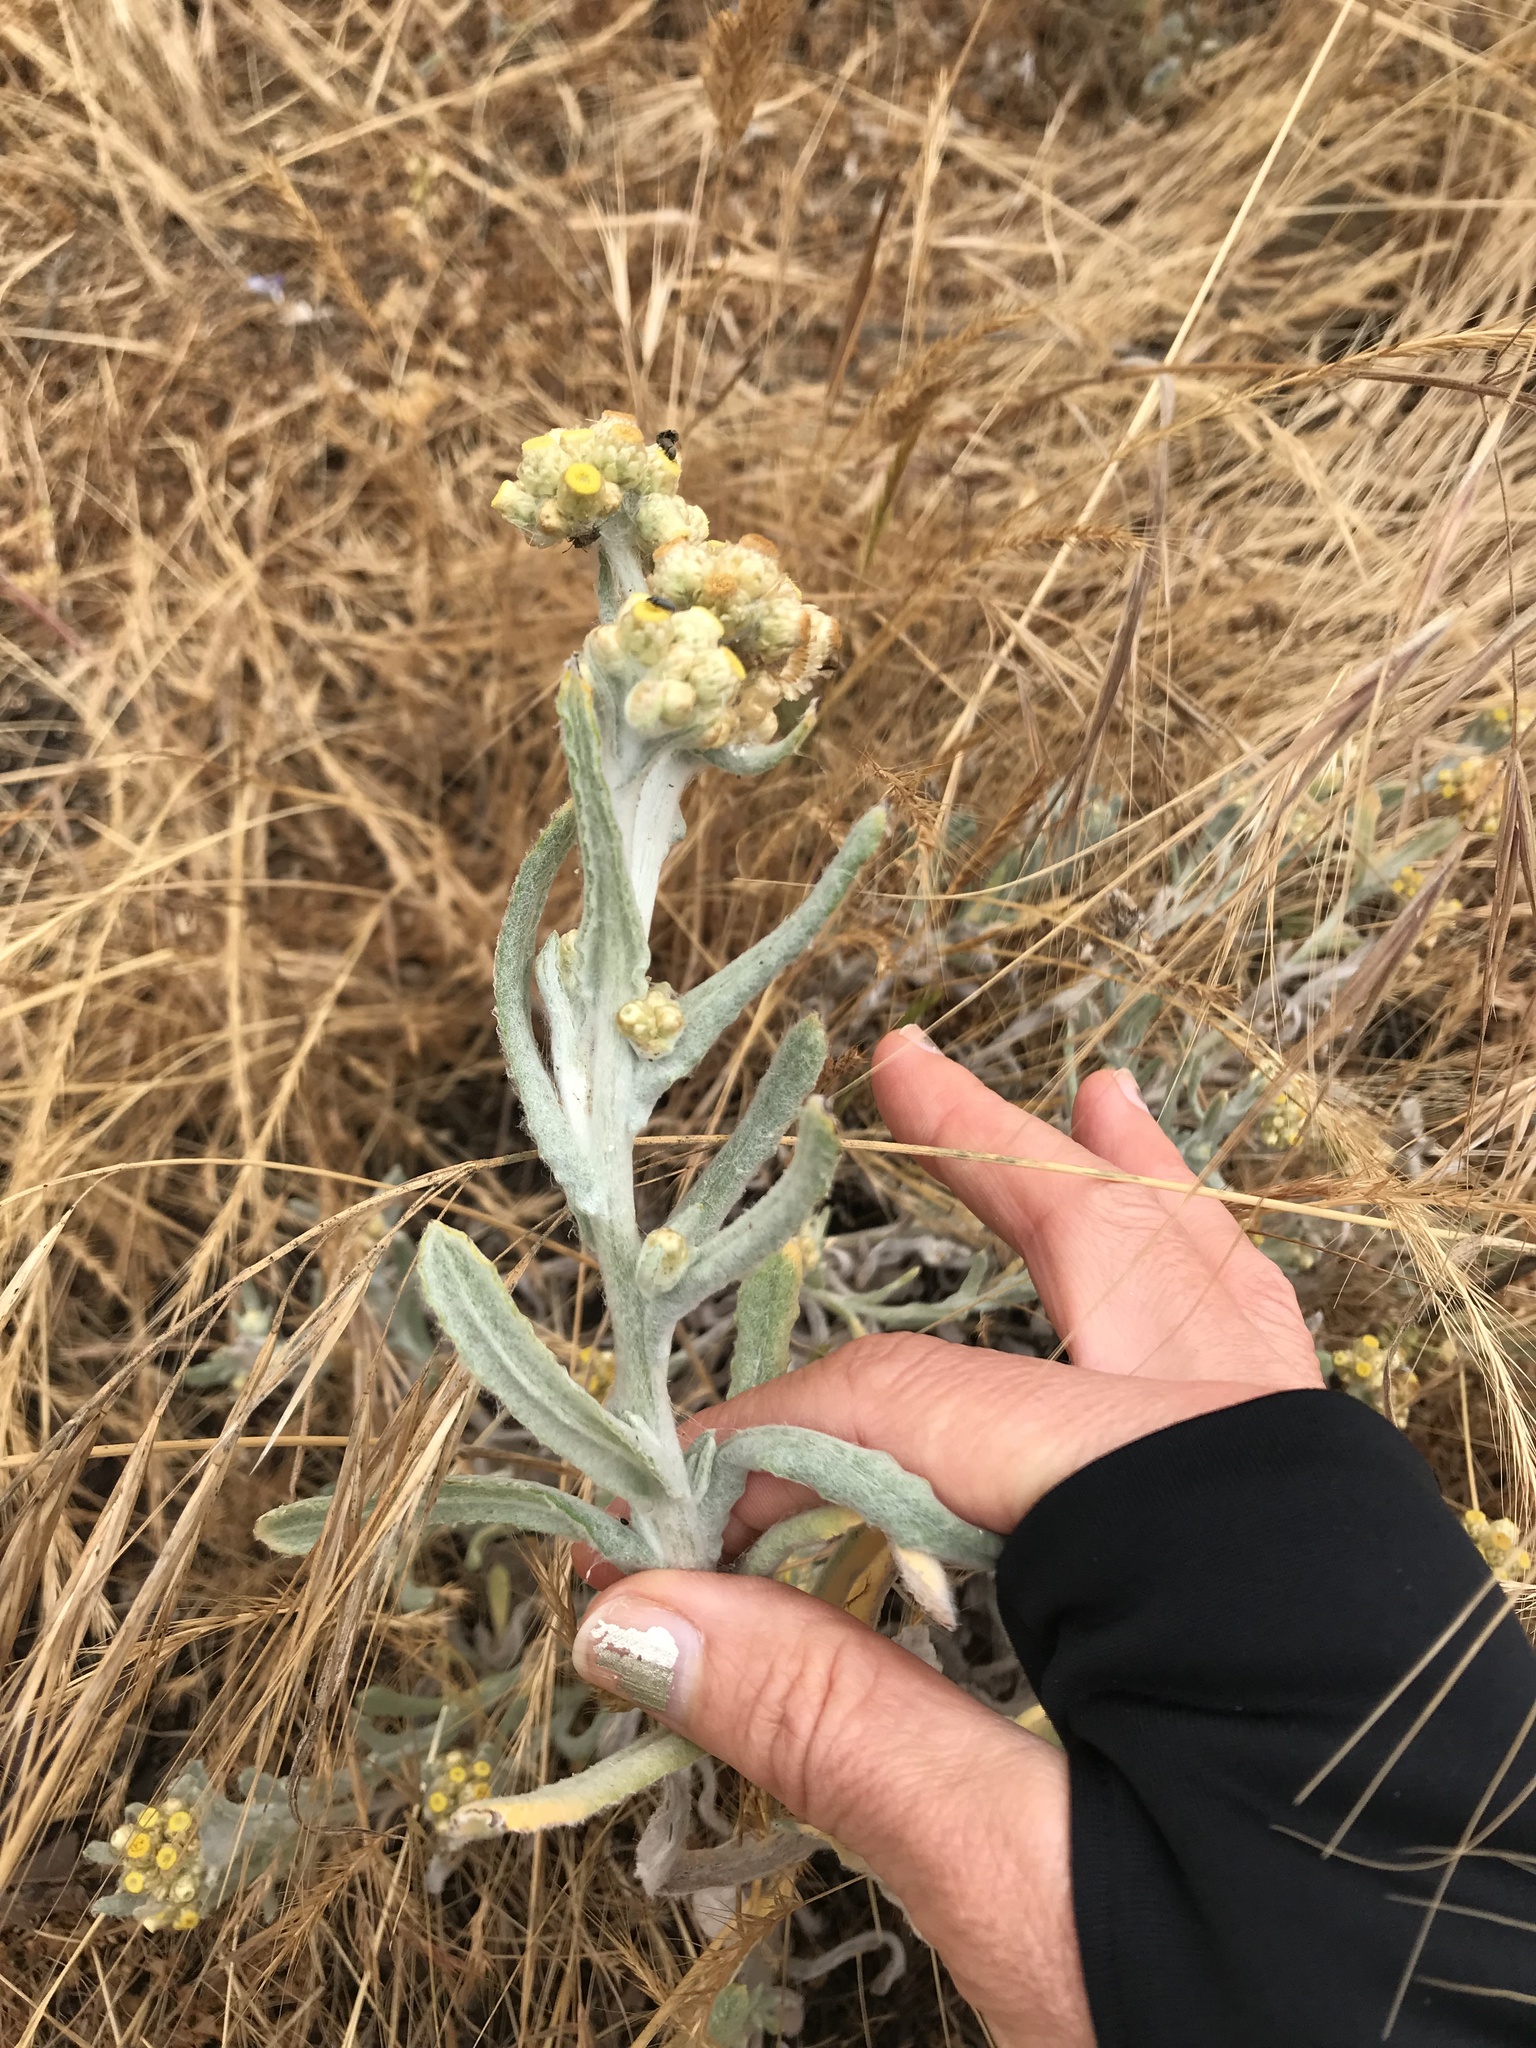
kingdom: Plantae
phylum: Tracheophyta
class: Magnoliopsida
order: Asterales
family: Asteraceae
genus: Pseudognaphalium
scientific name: Pseudognaphalium stramineum
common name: Cotton-batting-plant
